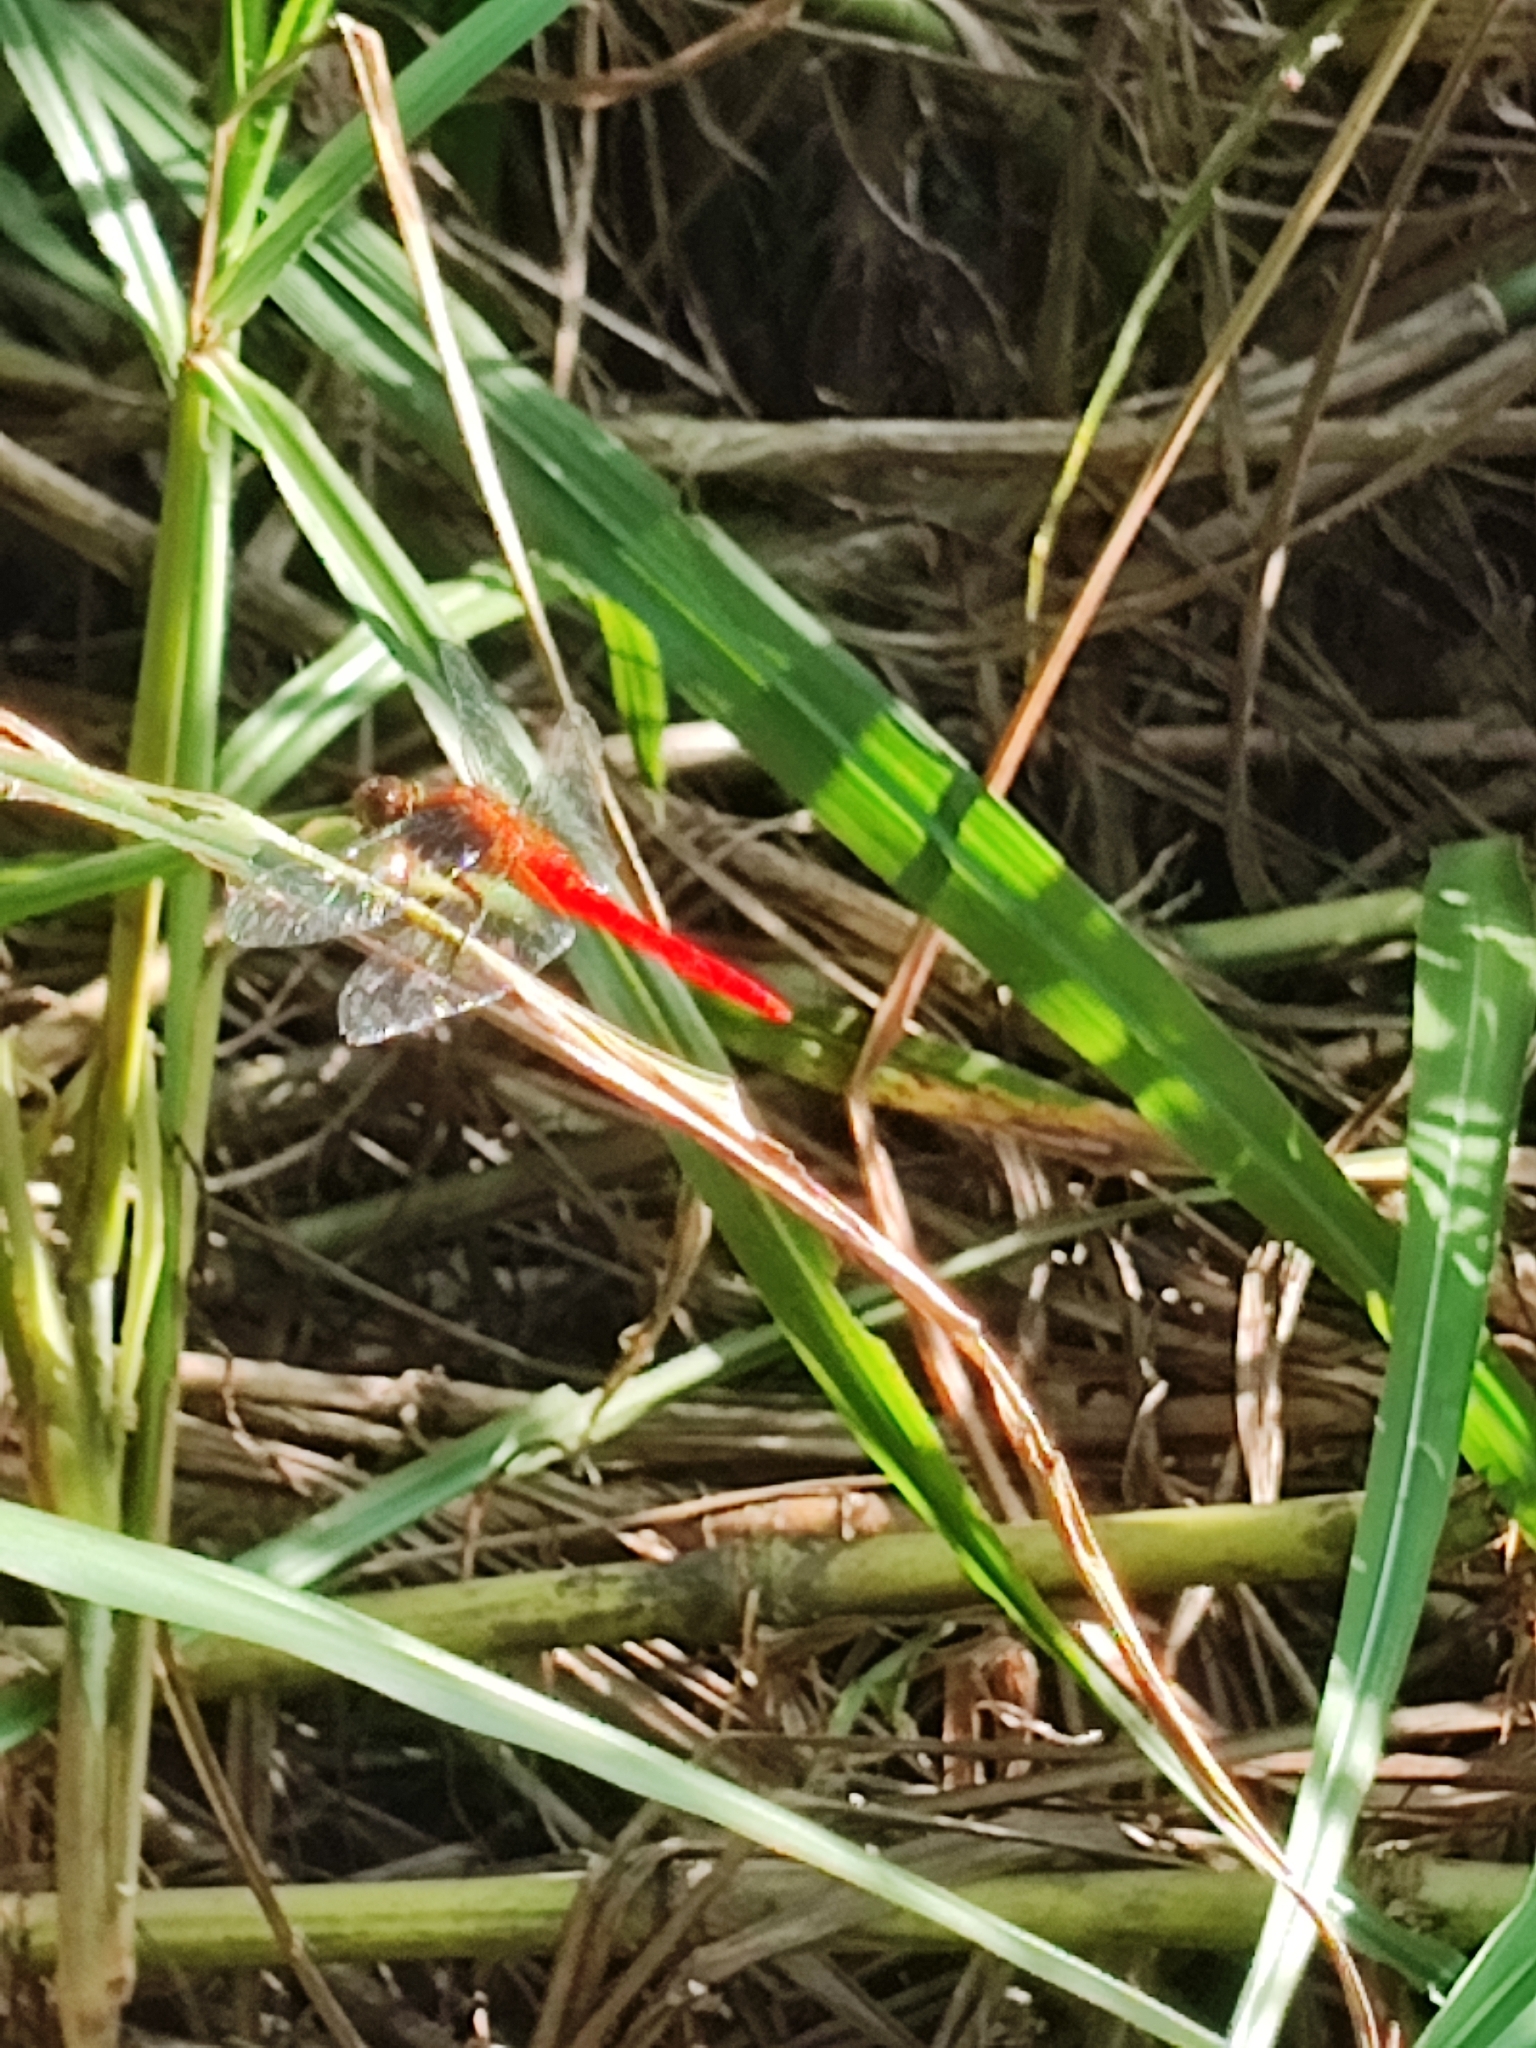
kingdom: Animalia
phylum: Arthropoda
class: Insecta
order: Odonata
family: Libellulidae
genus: Orthetrum
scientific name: Orthetrum testaceum
